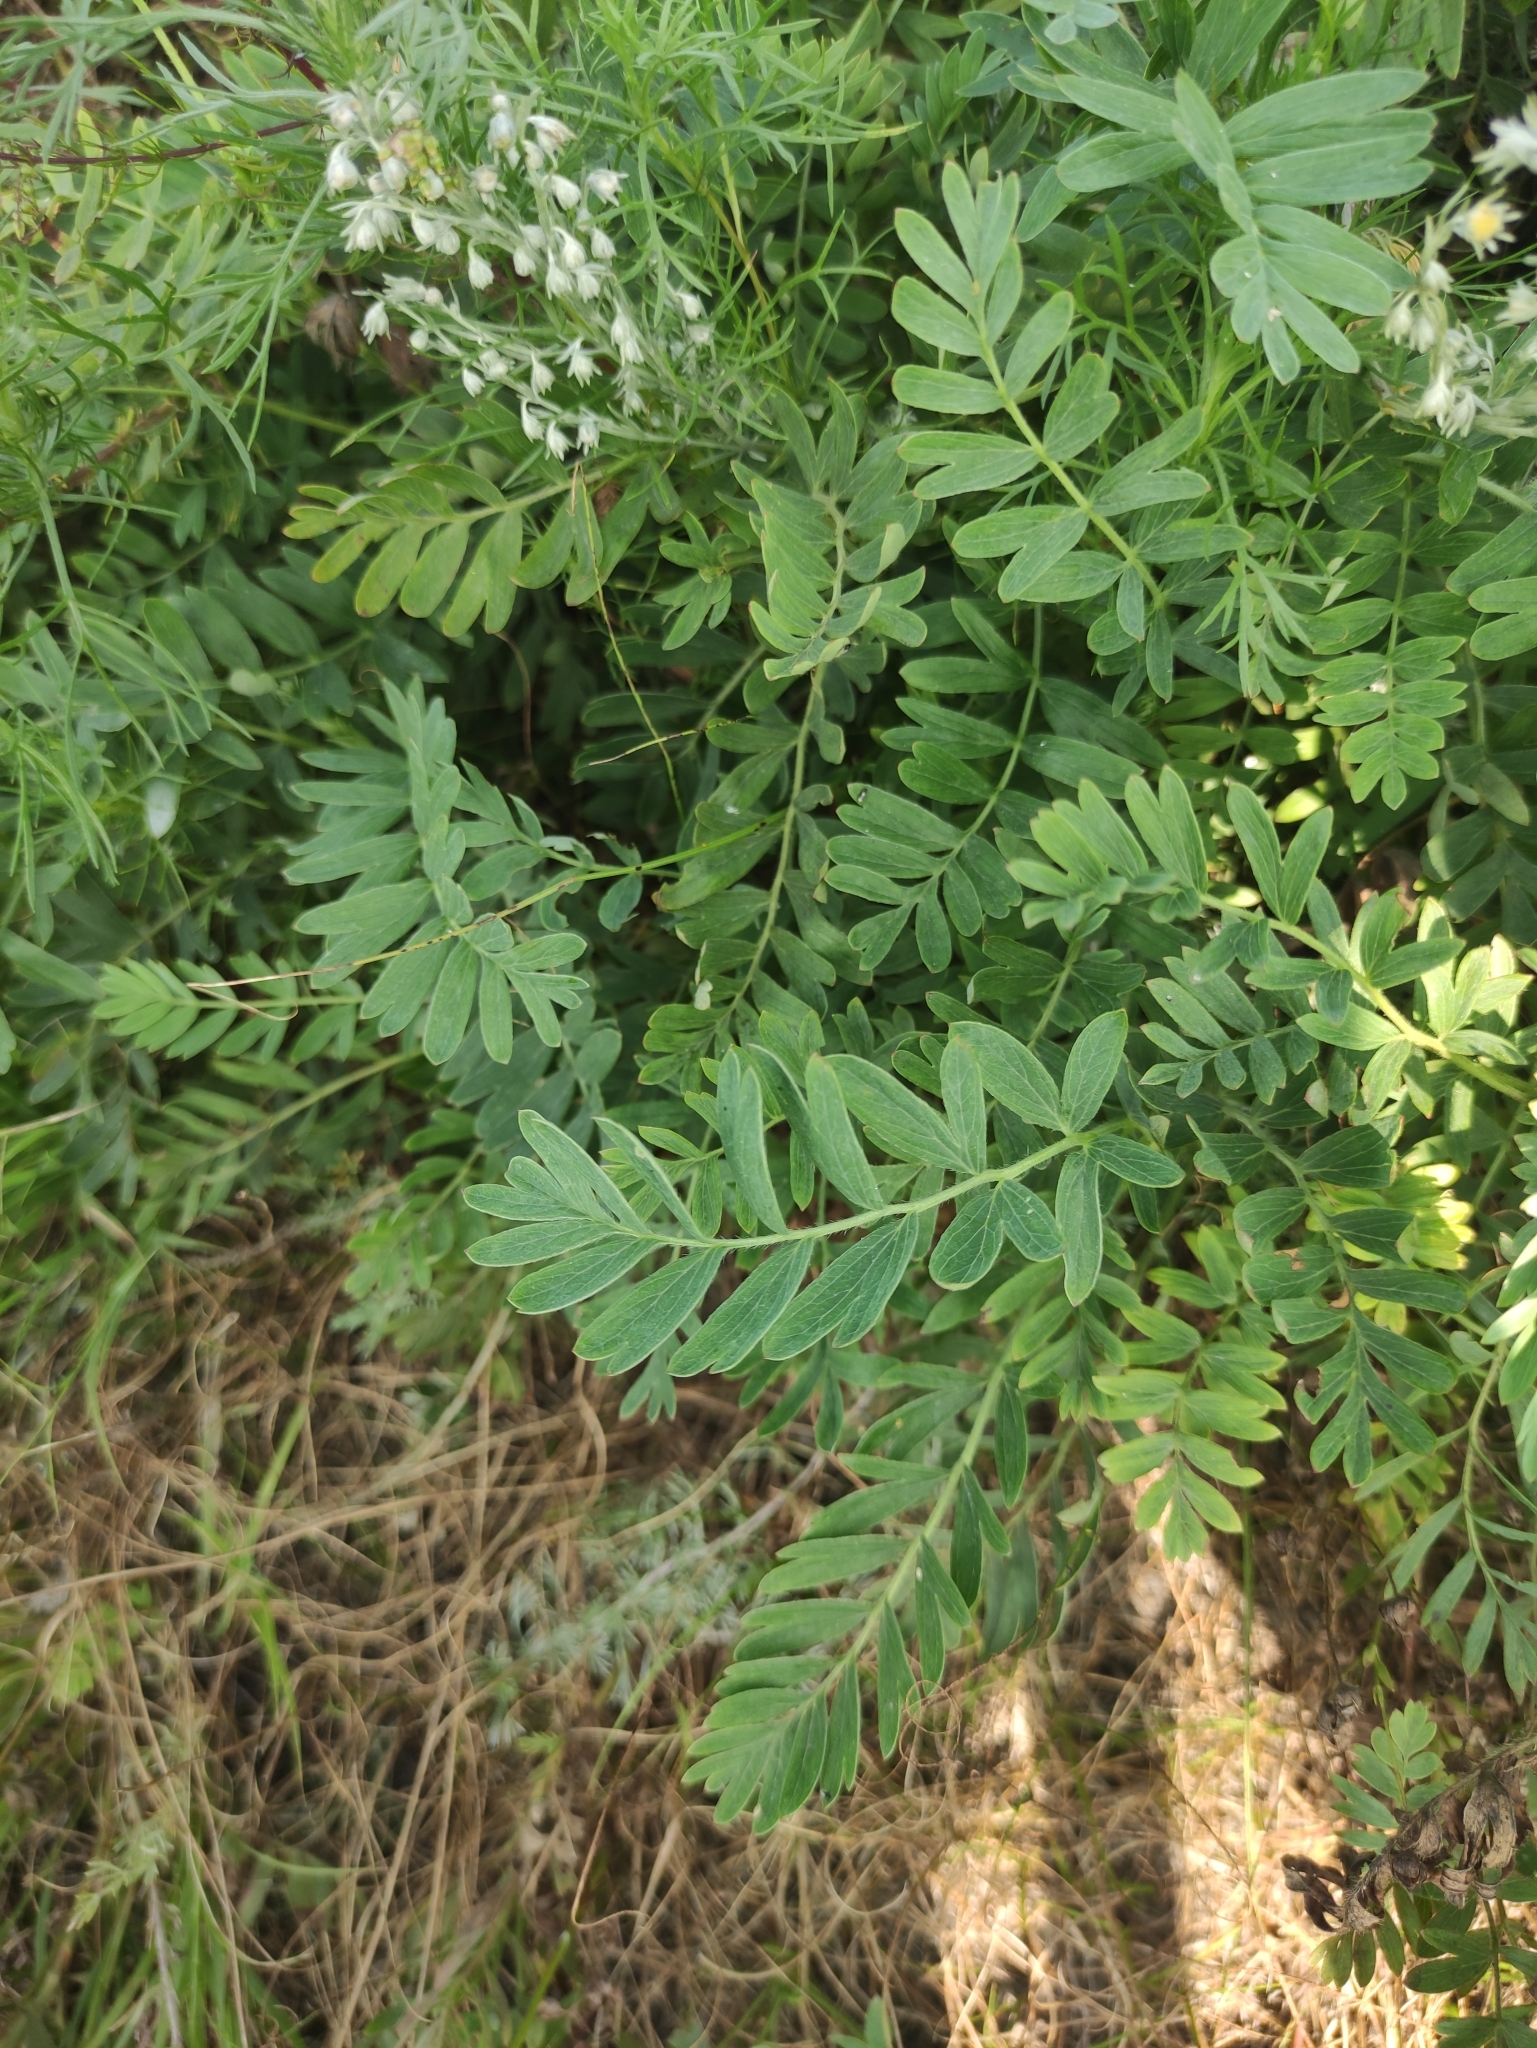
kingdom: Plantae
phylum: Tracheophyta
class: Magnoliopsida
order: Rosales
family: Rosaceae
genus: Sibbaldianthe
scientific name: Sibbaldianthe bifurca
